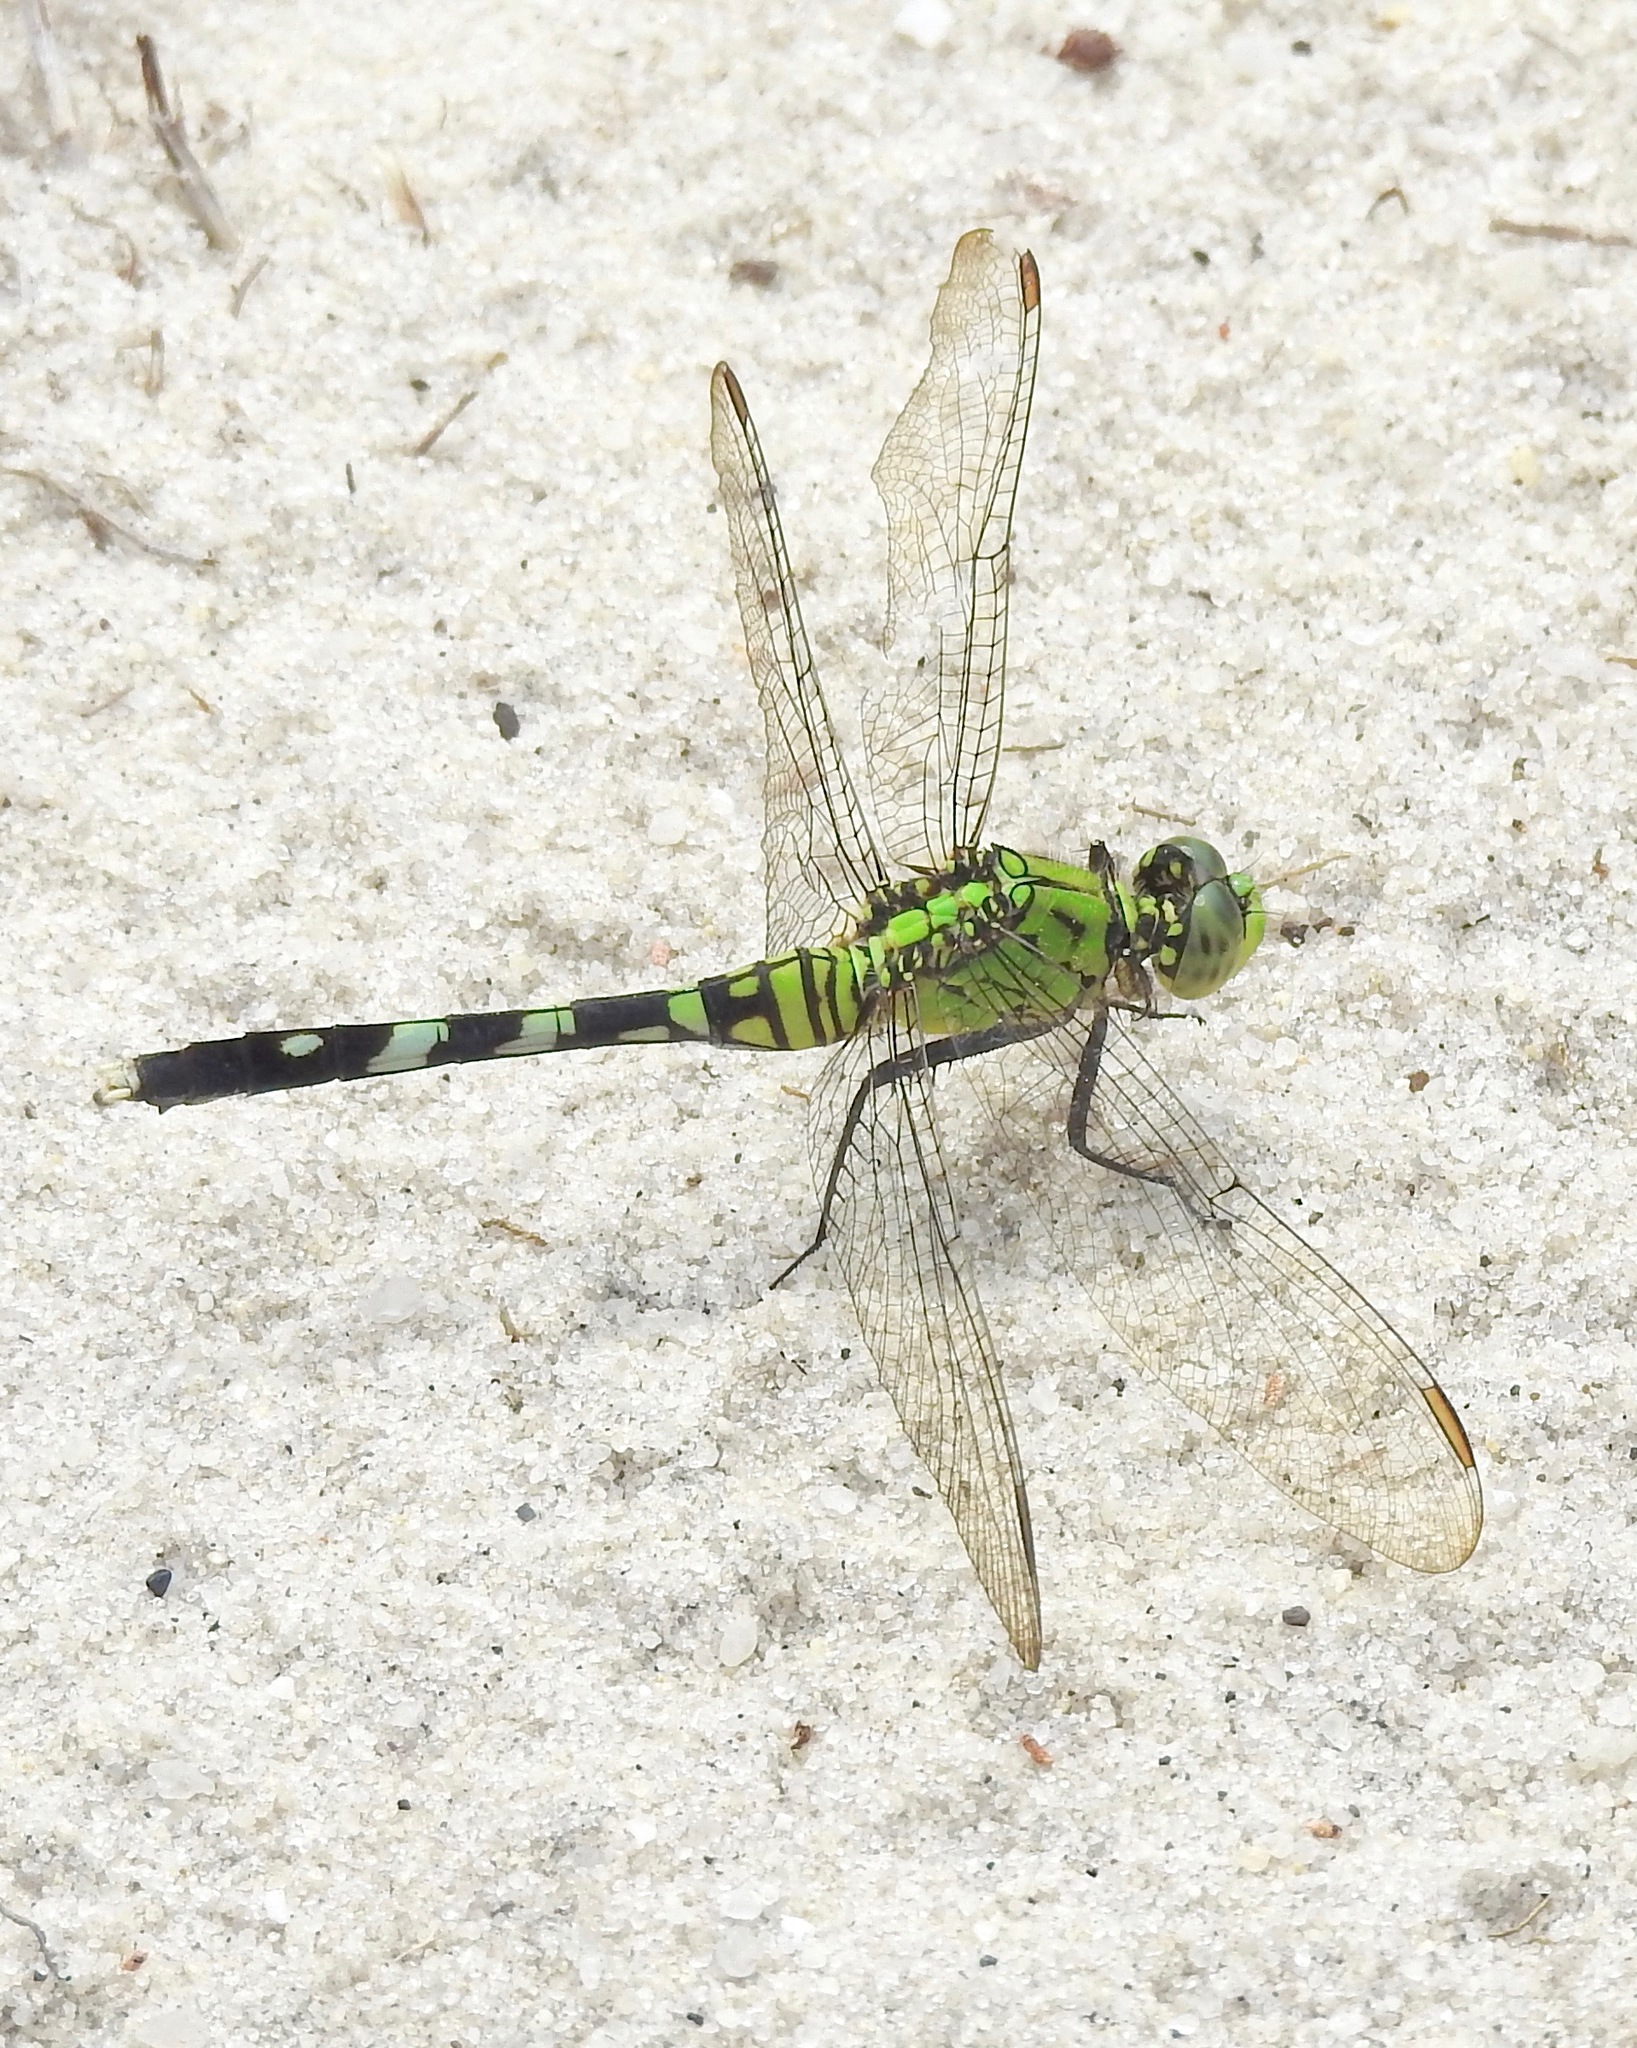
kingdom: Animalia
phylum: Arthropoda
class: Insecta
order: Odonata
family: Libellulidae
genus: Erythemis
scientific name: Erythemis simplicicollis
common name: Eastern pondhawk
